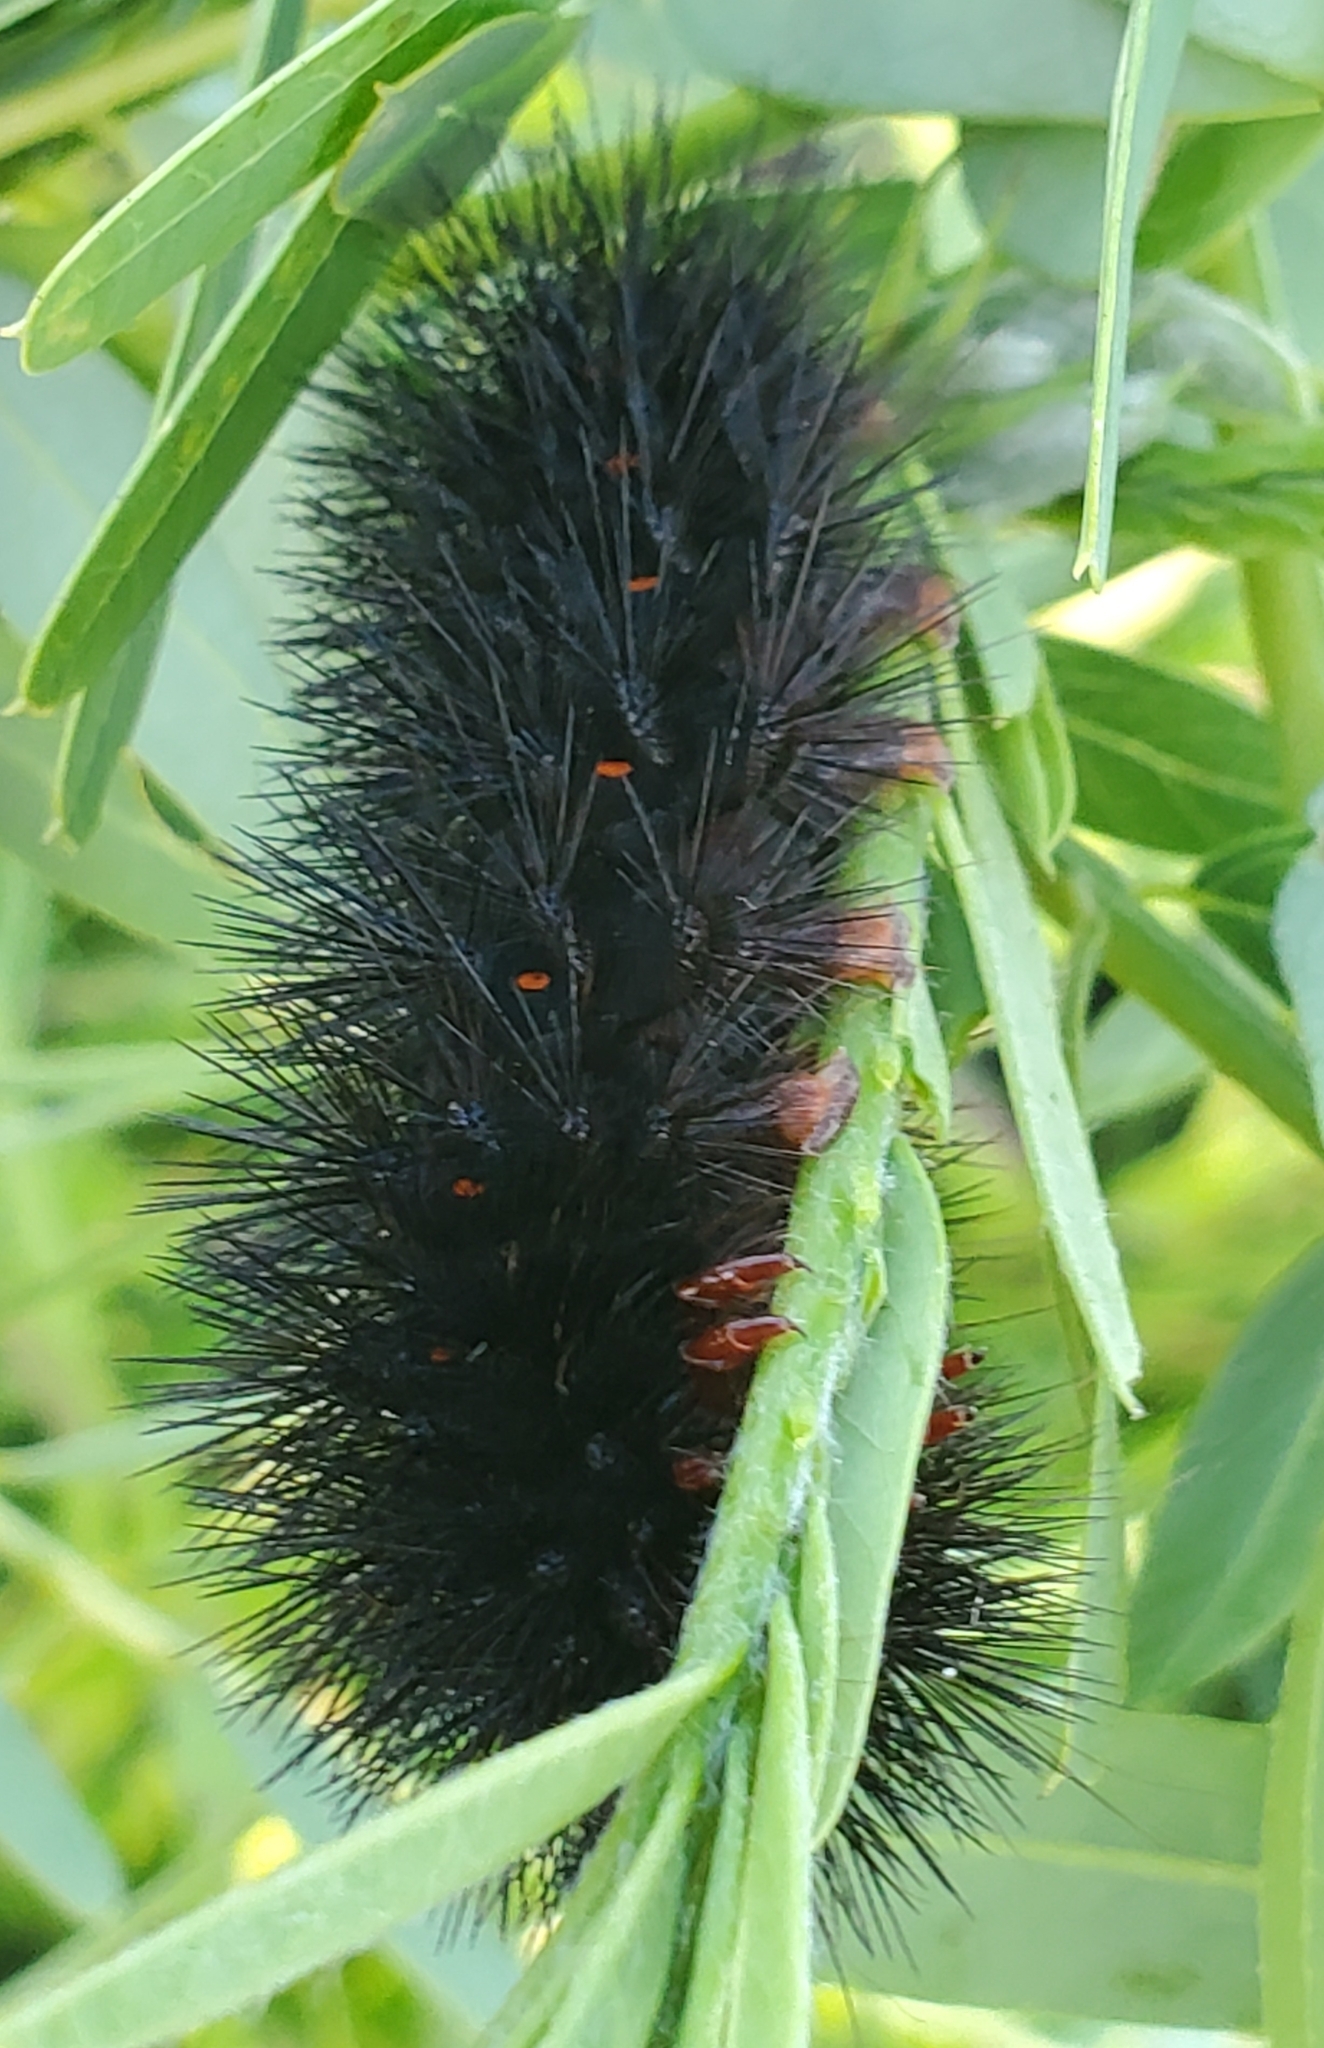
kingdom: Animalia
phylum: Arthropoda
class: Insecta
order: Lepidoptera
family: Erebidae
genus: Hypercompe
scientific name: Hypercompe scribonia
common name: Giant leopard moth
